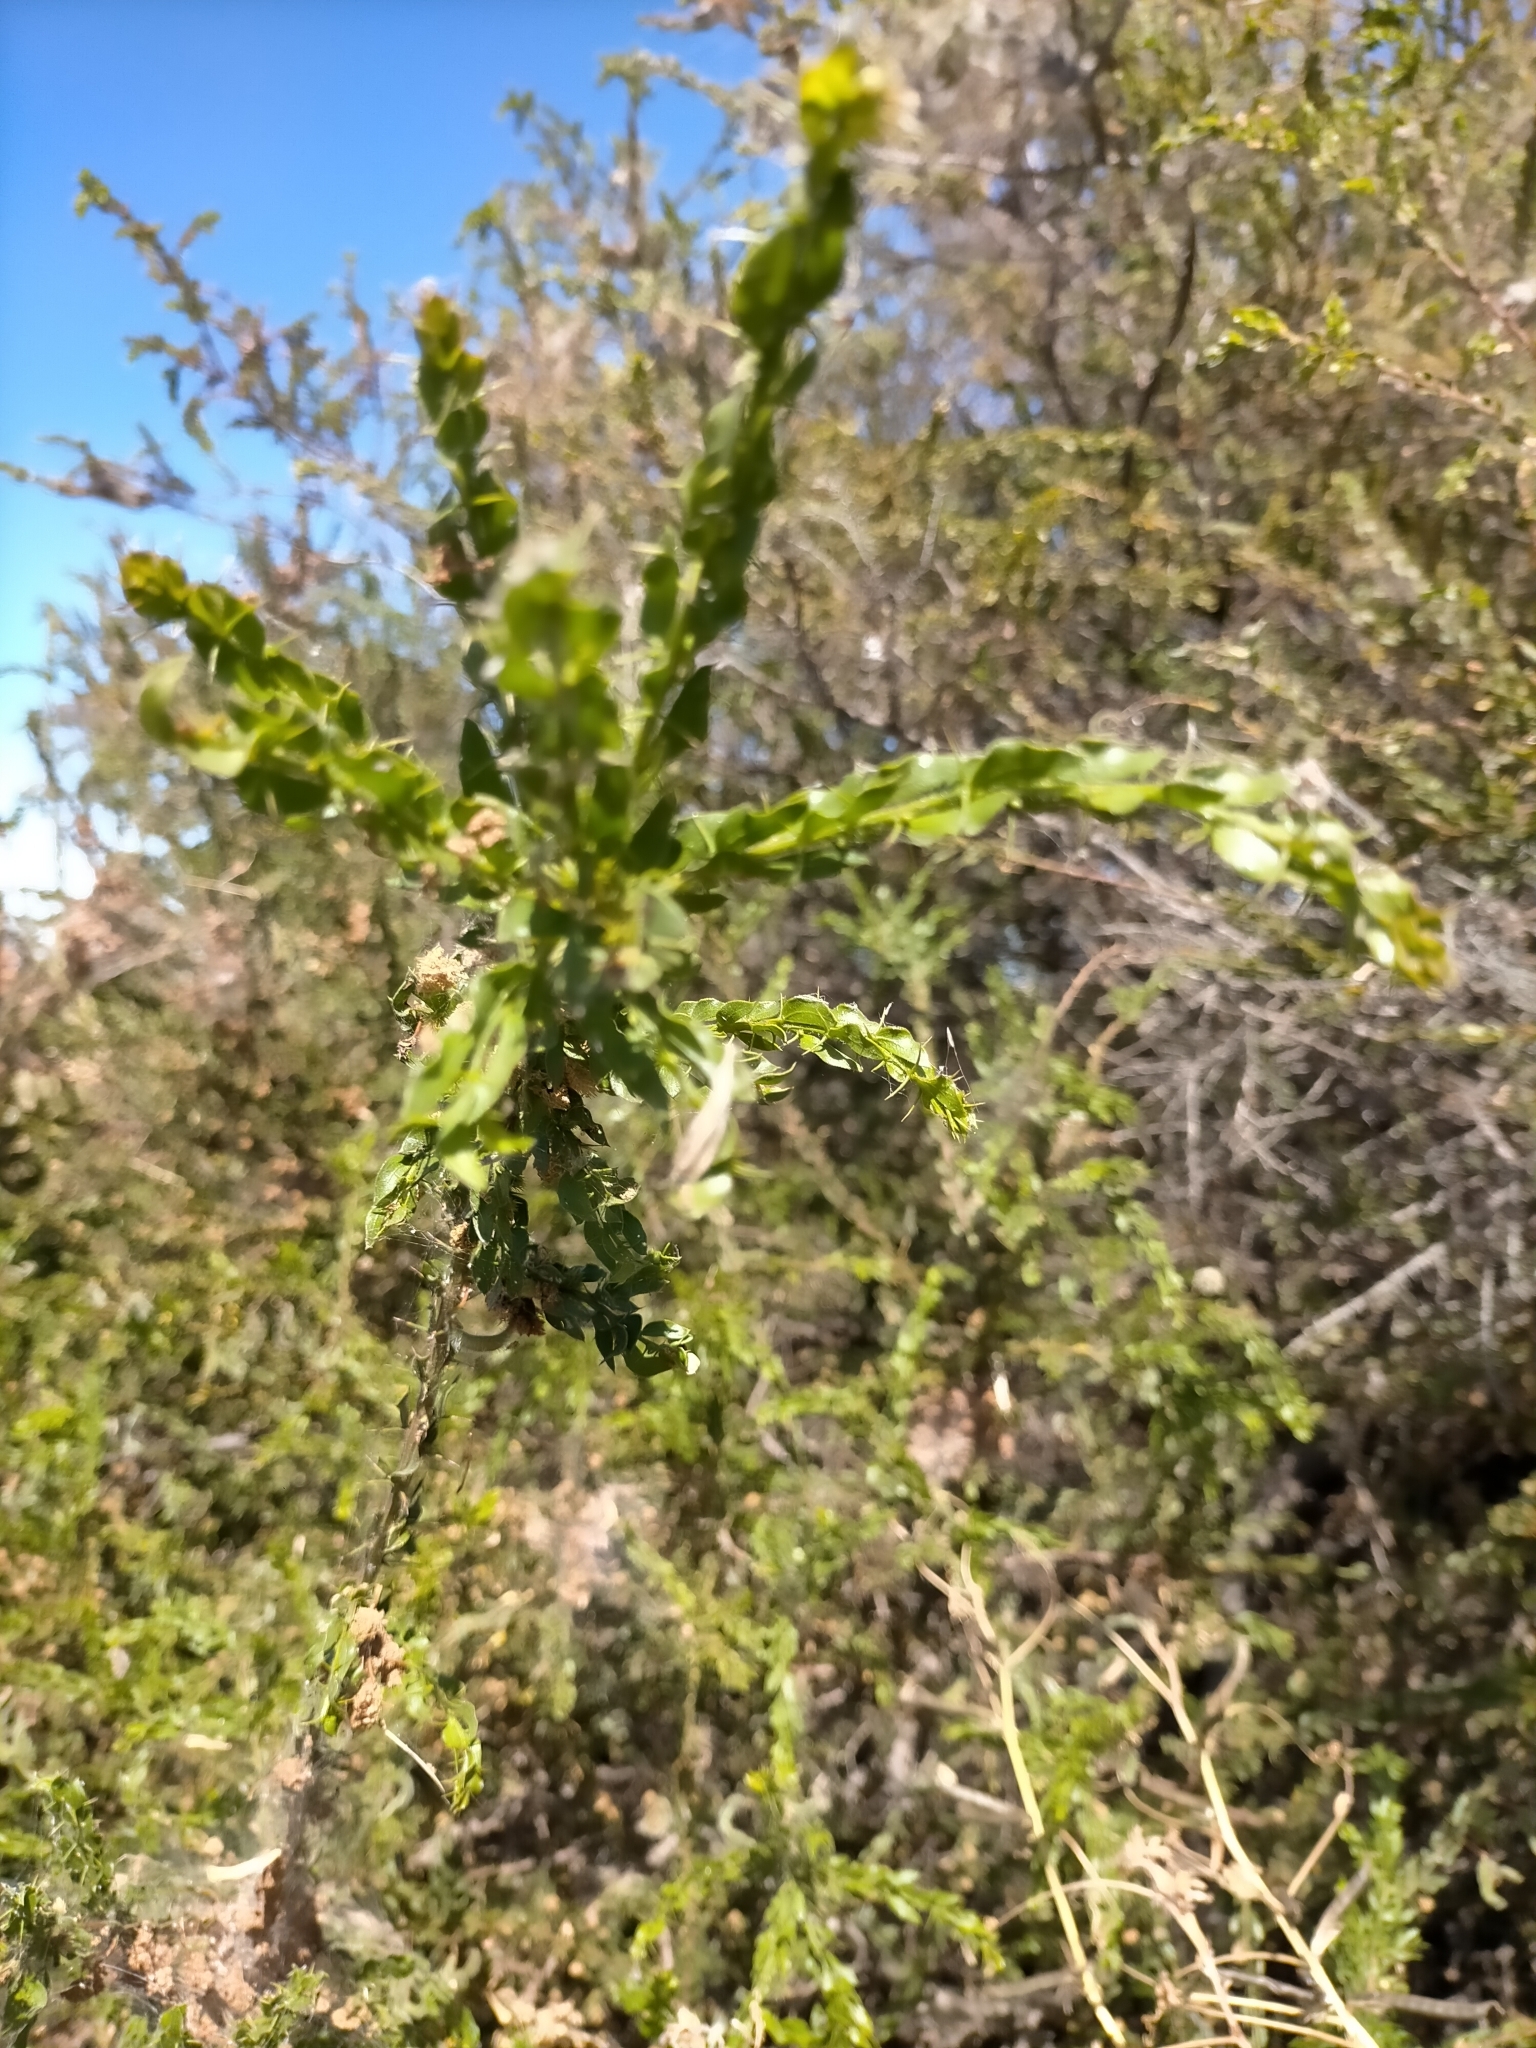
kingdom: Plantae
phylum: Tracheophyta
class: Magnoliopsida
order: Fabales
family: Fabaceae
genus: Acacia
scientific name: Acacia paradoxa
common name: Paradox acacia
